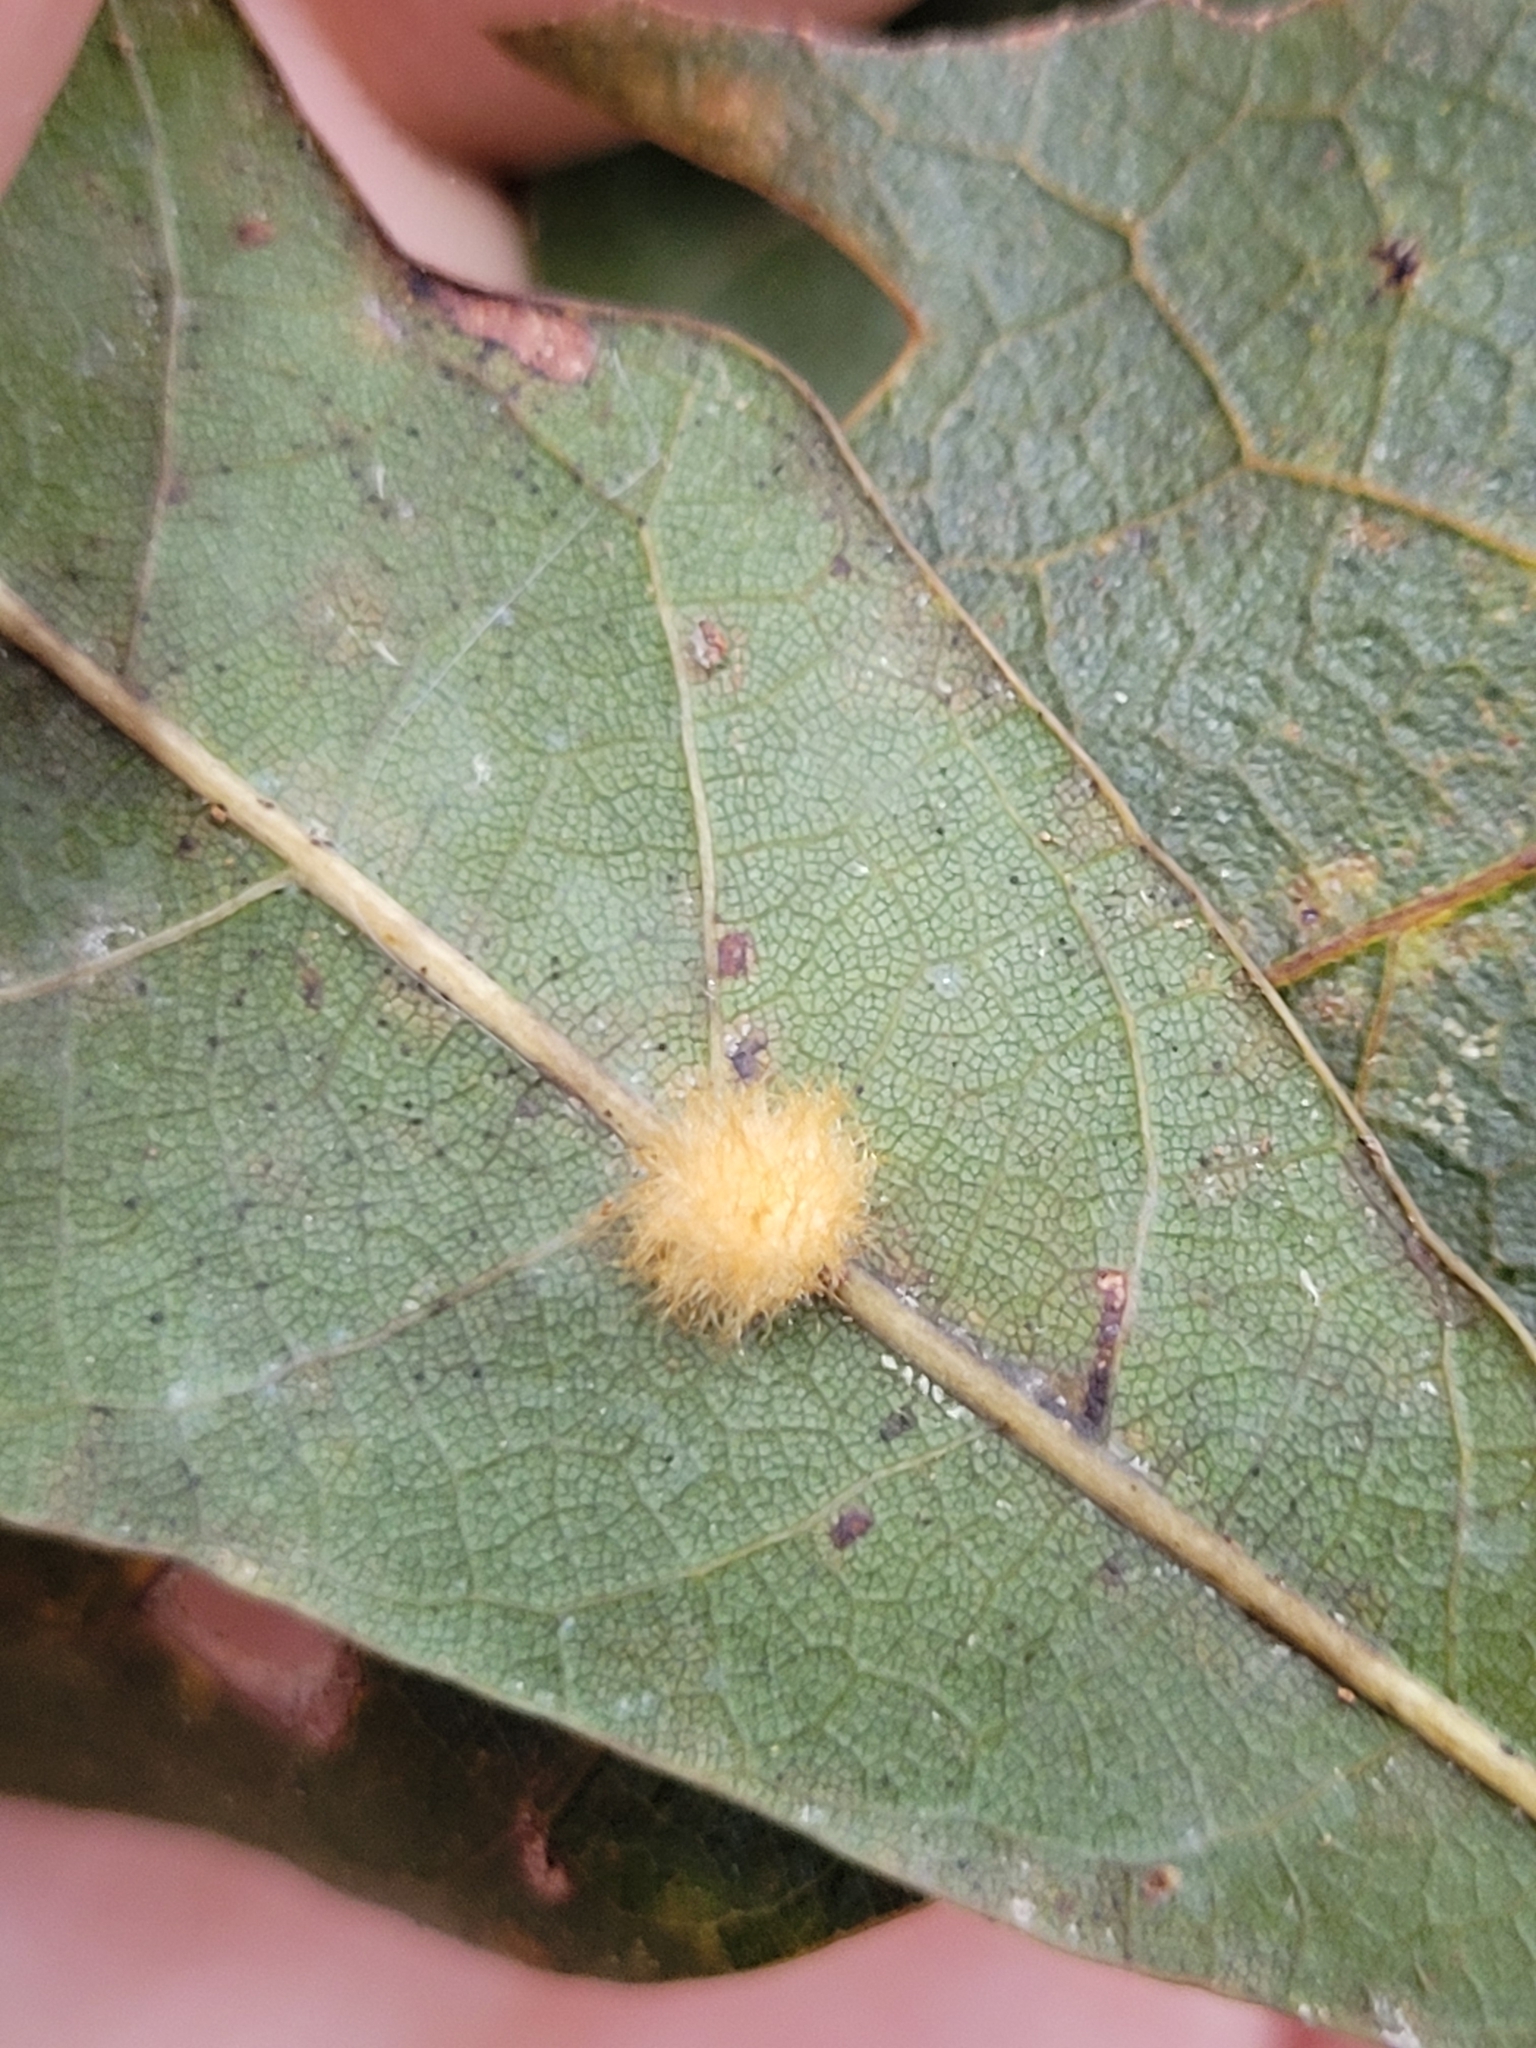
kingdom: Animalia
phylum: Arthropoda
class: Insecta
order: Hymenoptera
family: Cynipidae
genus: Andricus
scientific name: Andricus Druon pattoni
